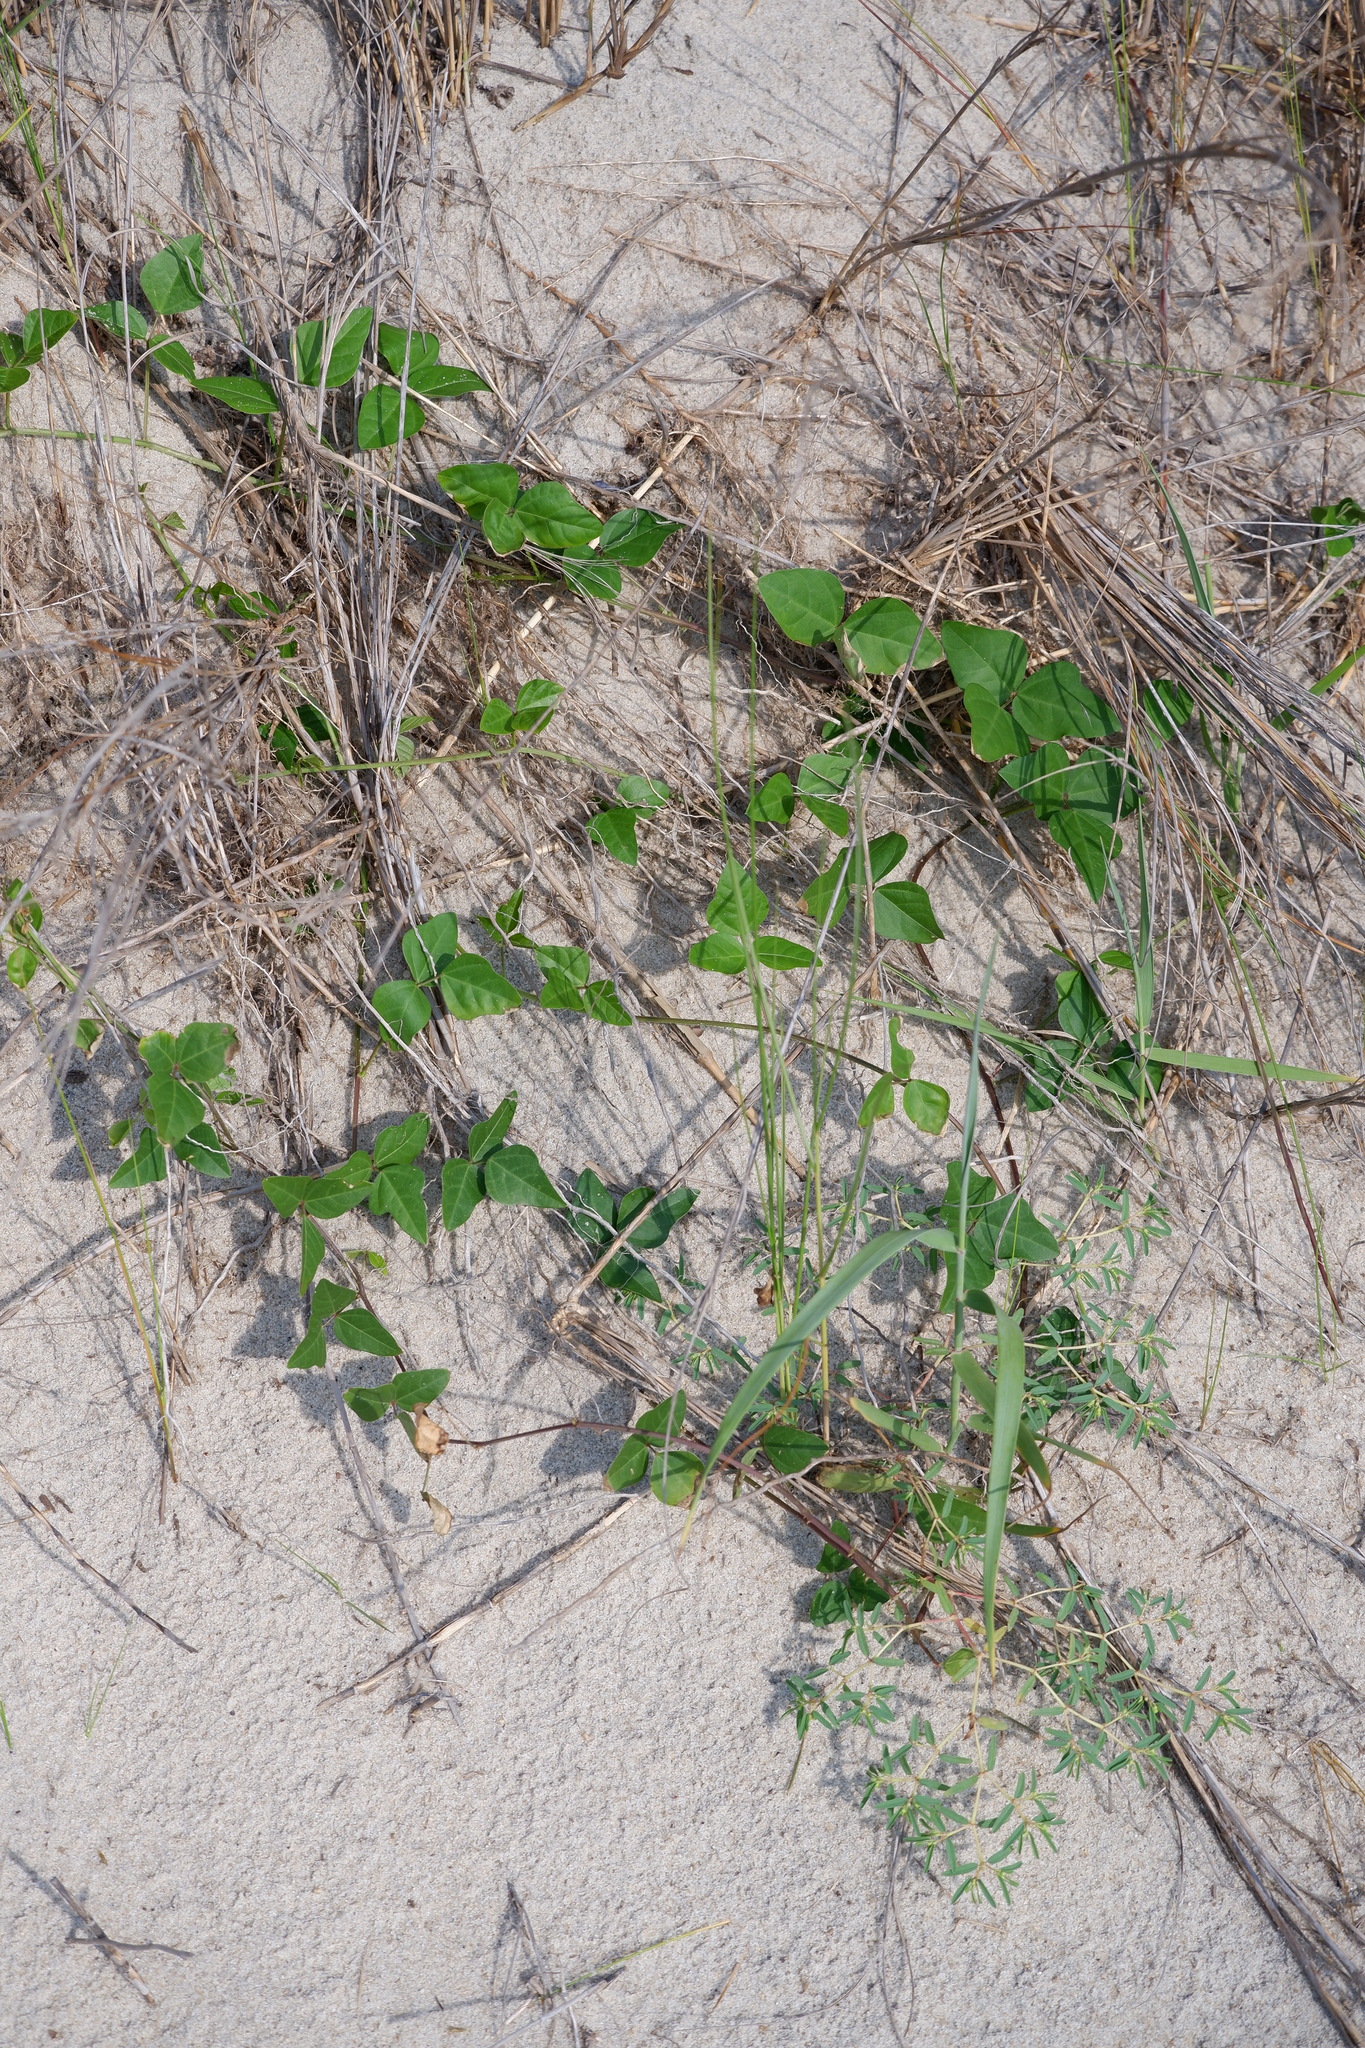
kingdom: Plantae
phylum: Tracheophyta
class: Magnoliopsida
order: Fabales
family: Fabaceae
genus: Strophostyles
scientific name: Strophostyles helvola
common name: Trailing wild bean
